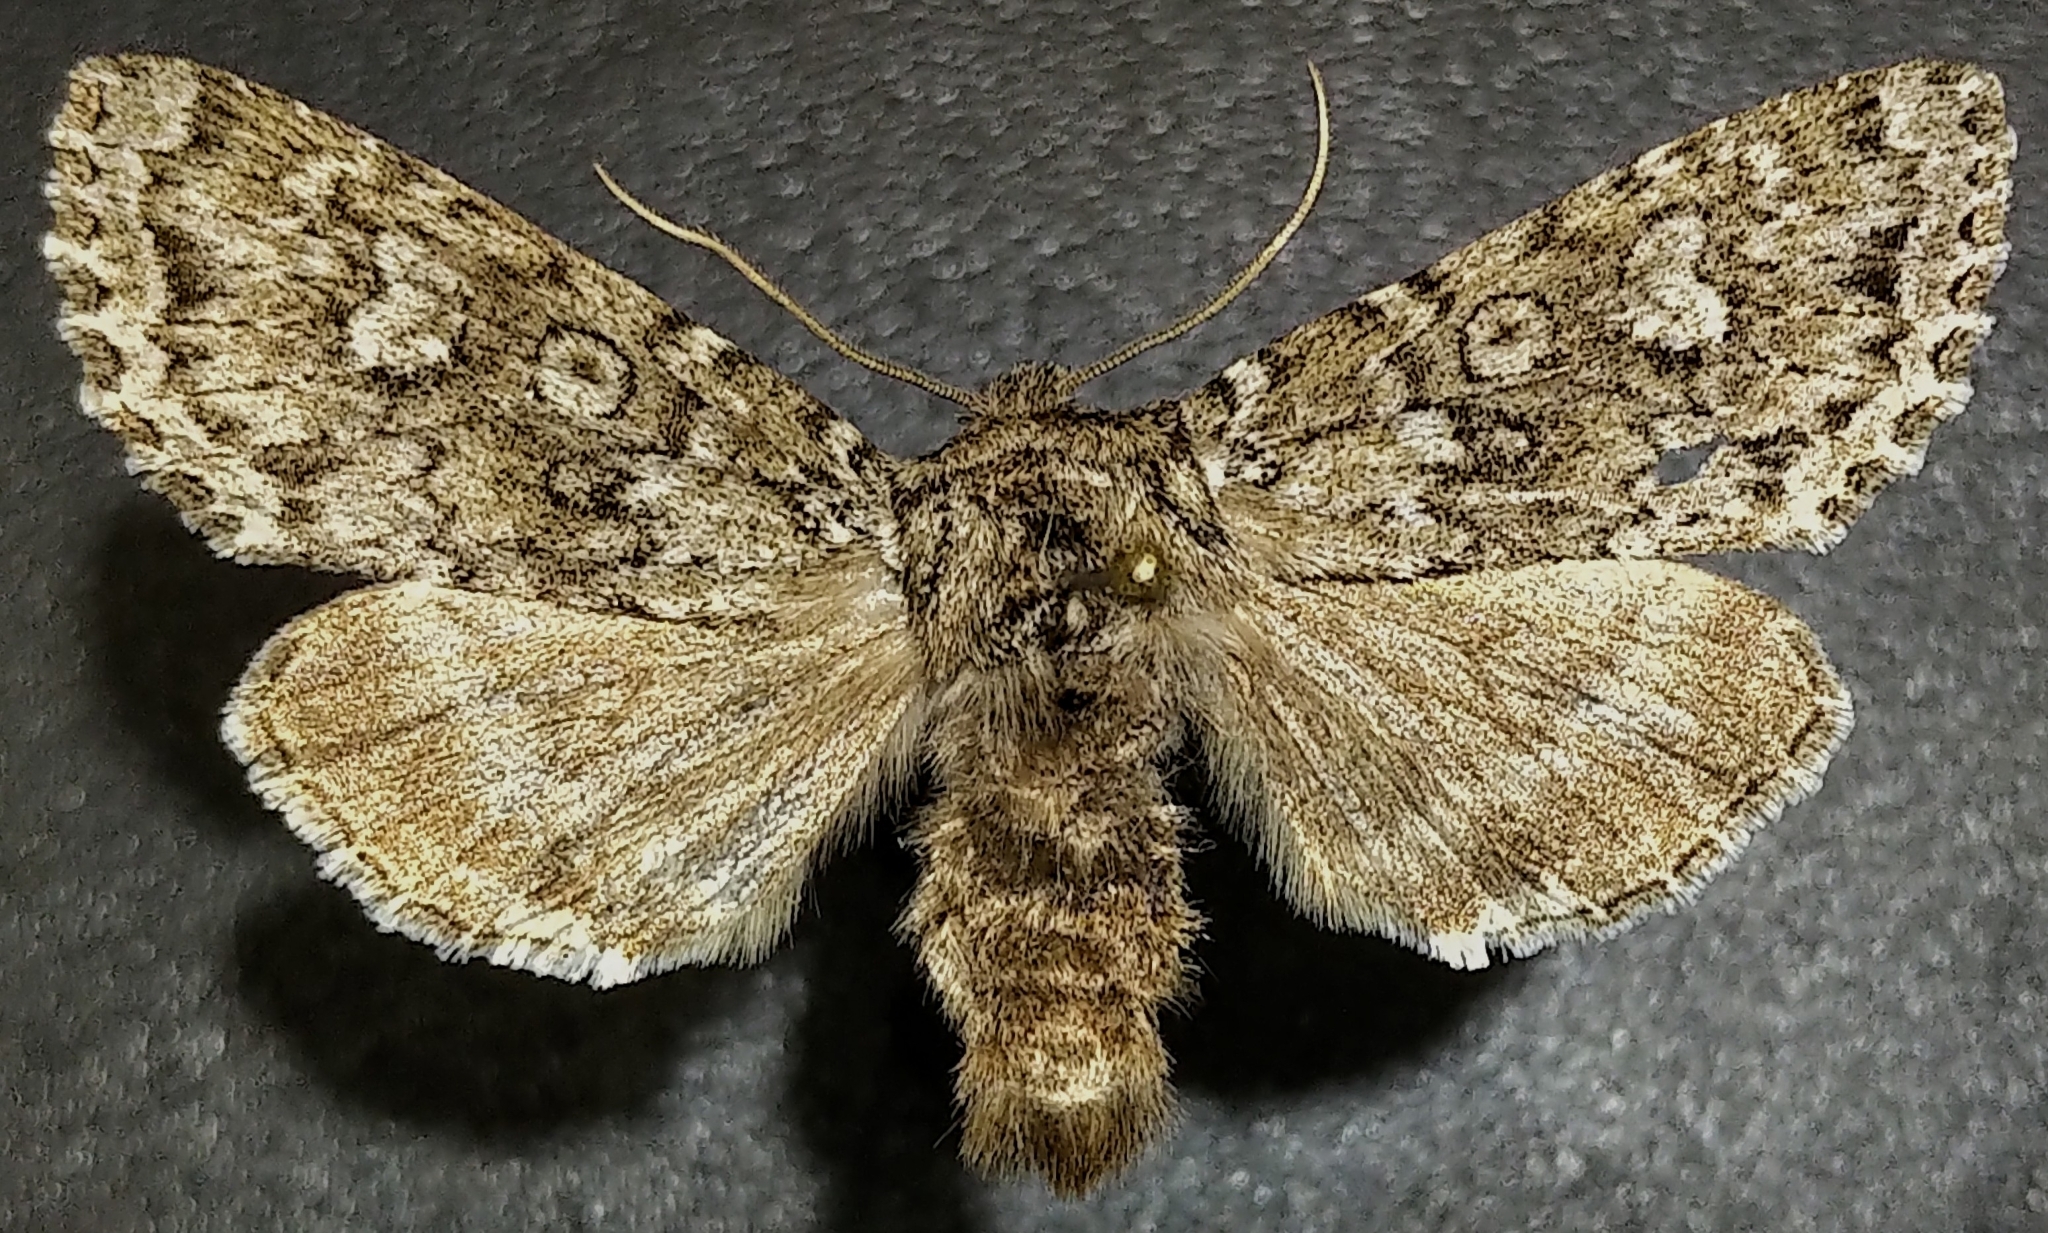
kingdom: Animalia
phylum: Arthropoda
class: Insecta
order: Lepidoptera
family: Noctuidae
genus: Polia
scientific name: Polia propodea
